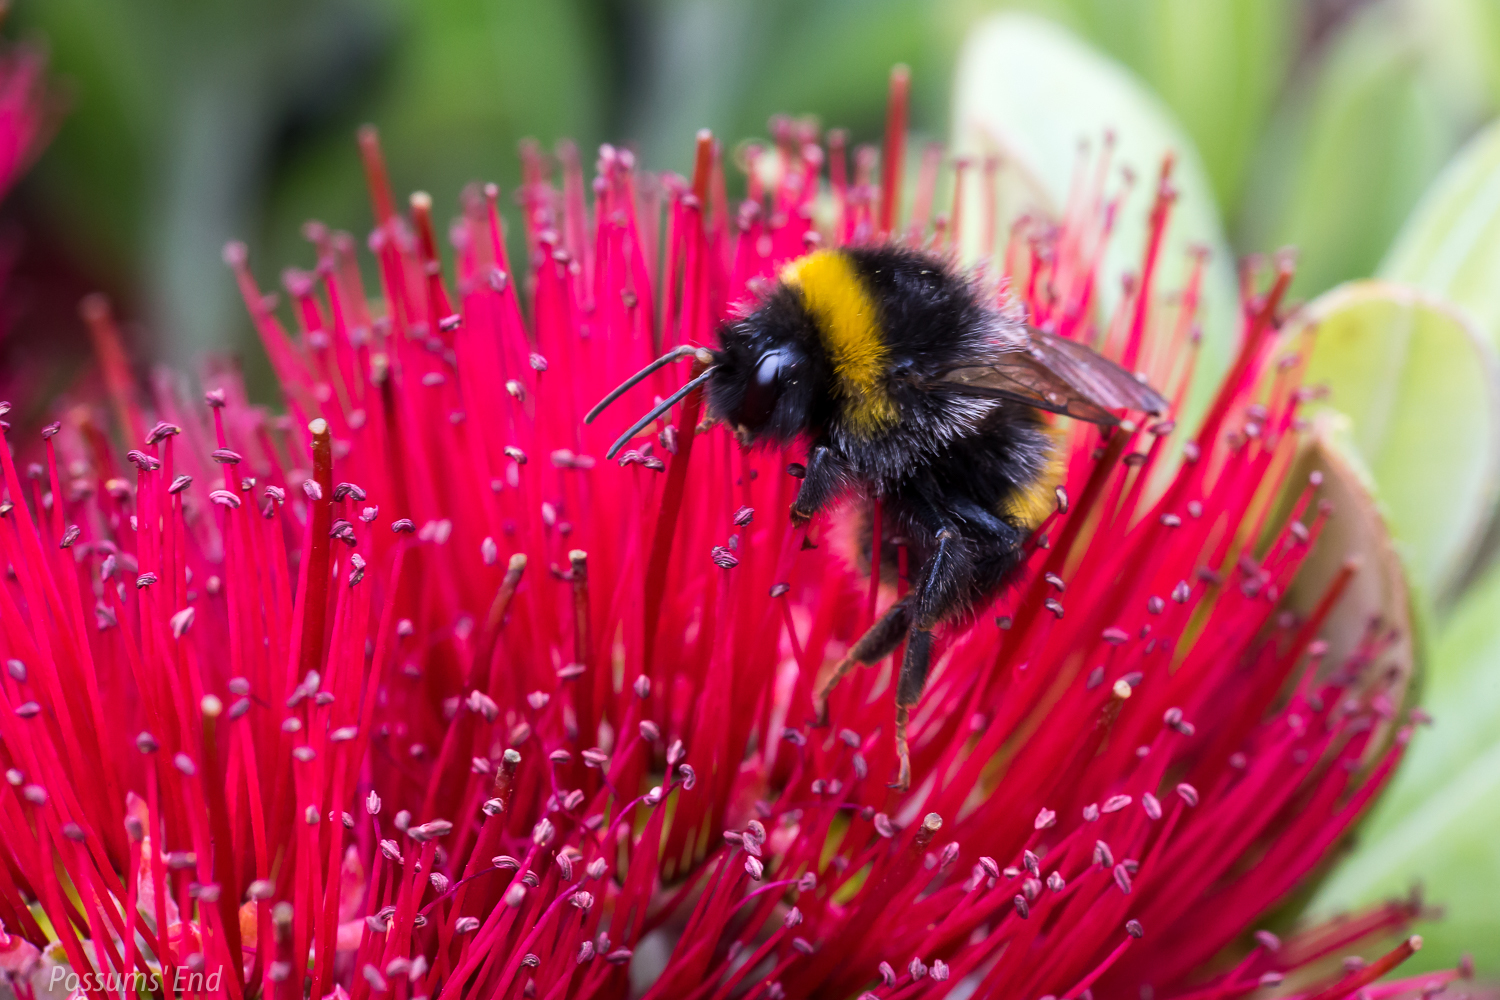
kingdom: Animalia
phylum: Arthropoda
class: Insecta
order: Hymenoptera
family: Apidae
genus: Bombus
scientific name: Bombus terrestris
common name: Buff-tailed bumblebee
